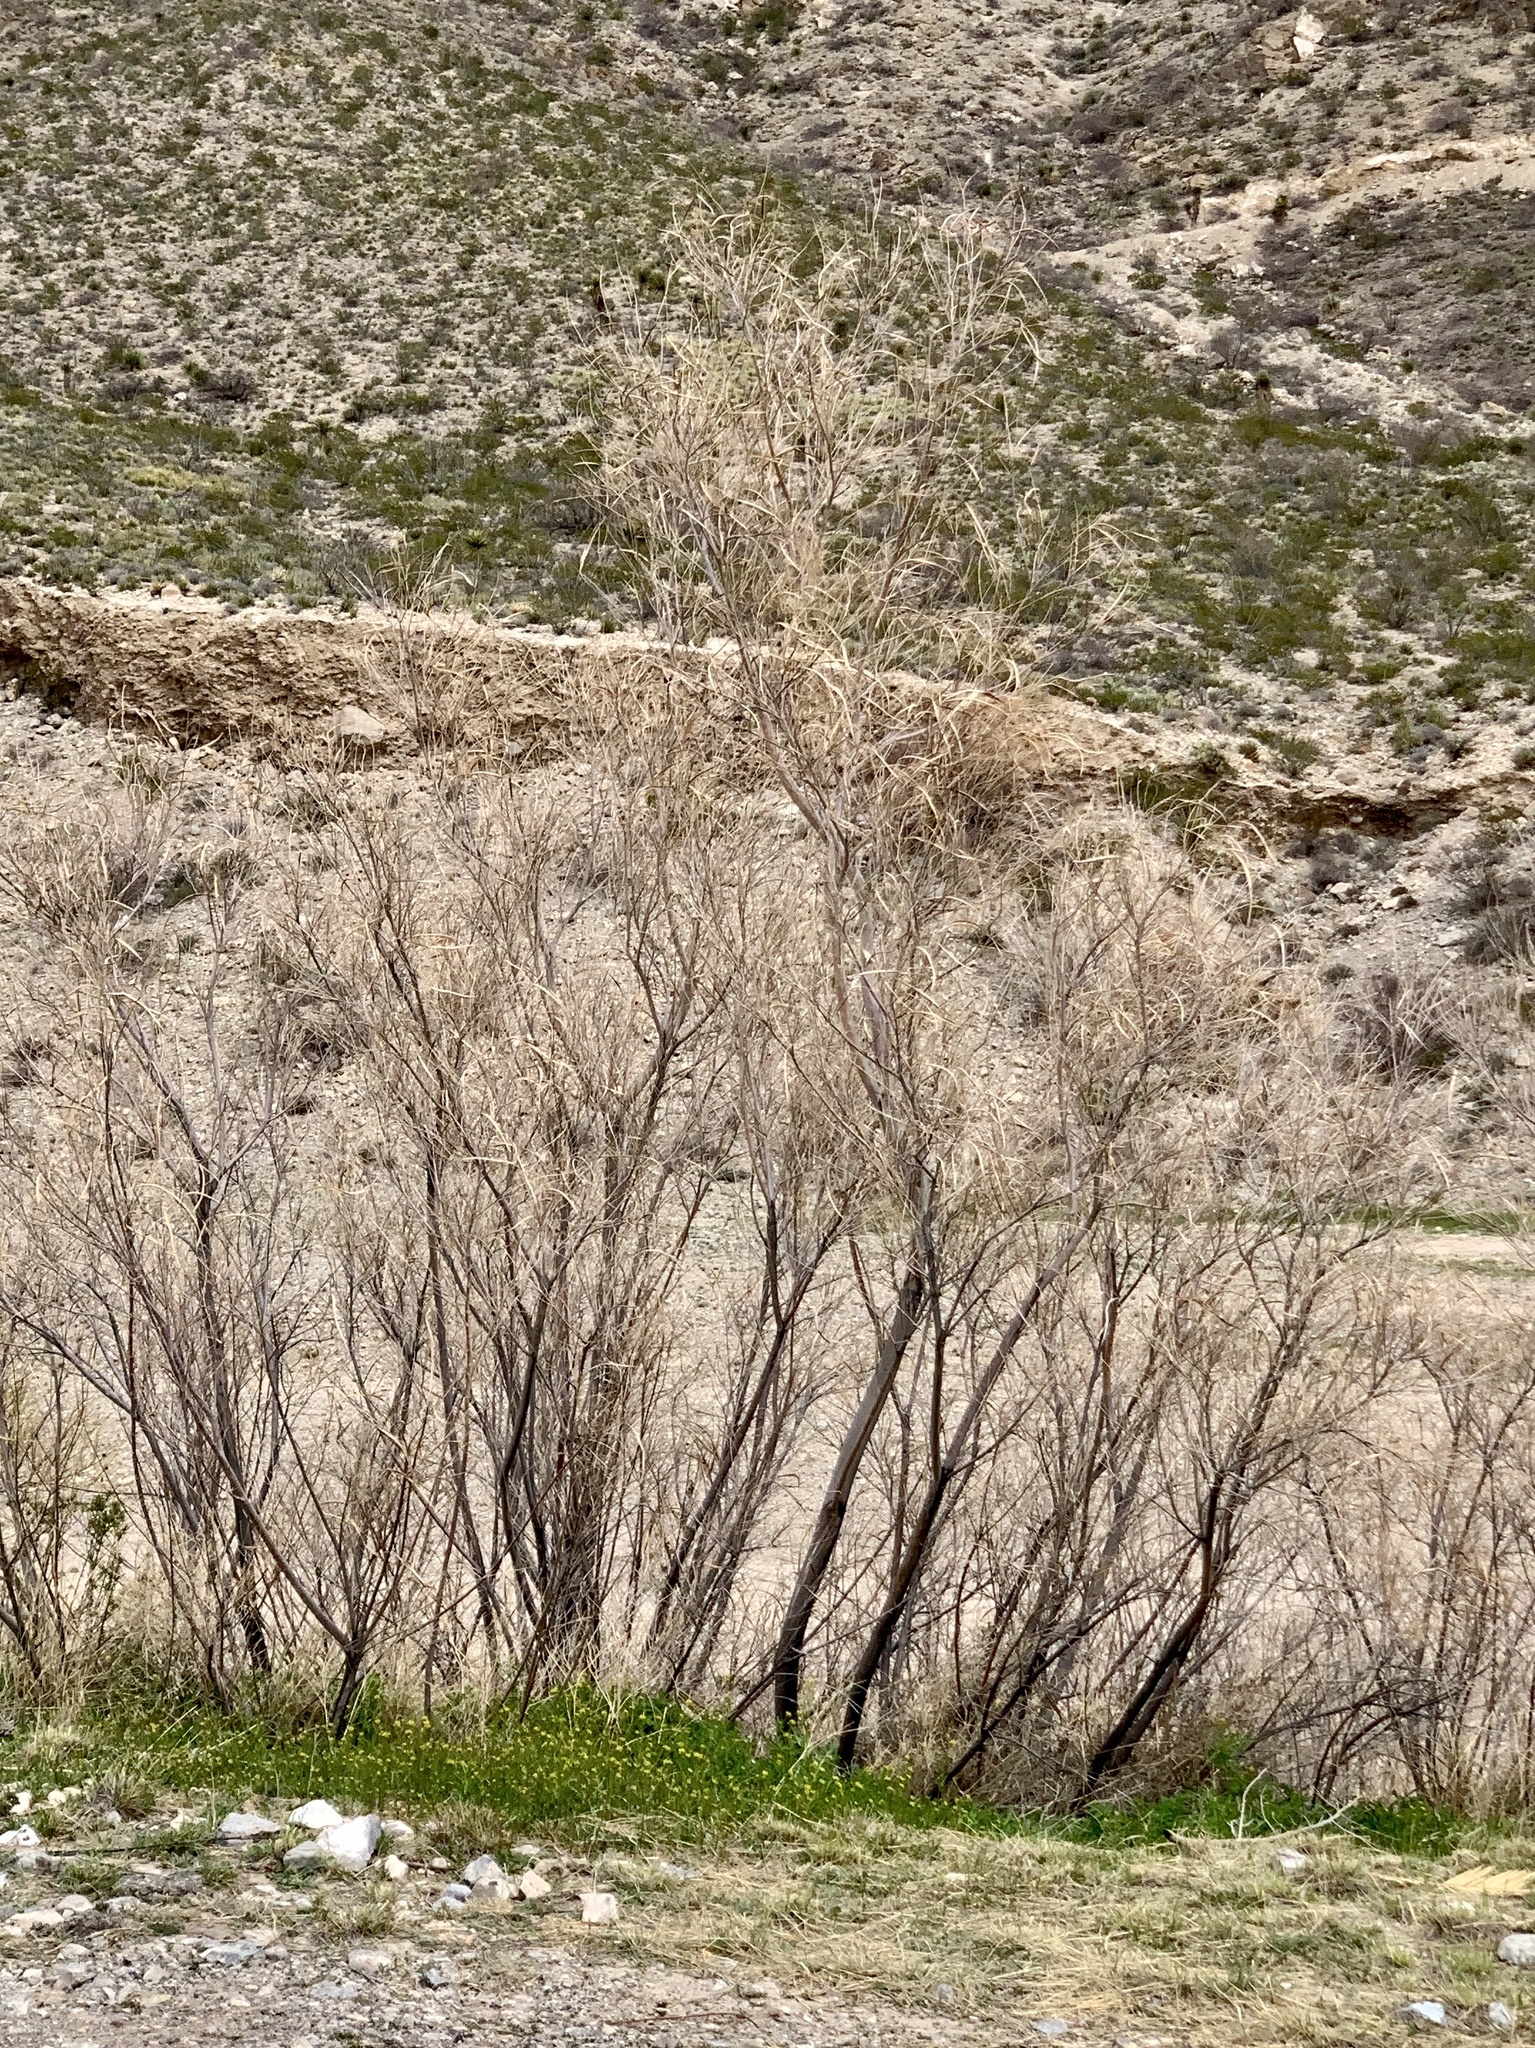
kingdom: Plantae
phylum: Tracheophyta
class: Magnoliopsida
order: Lamiales
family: Bignoniaceae
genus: Chilopsis
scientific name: Chilopsis linearis
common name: Desert-willow
